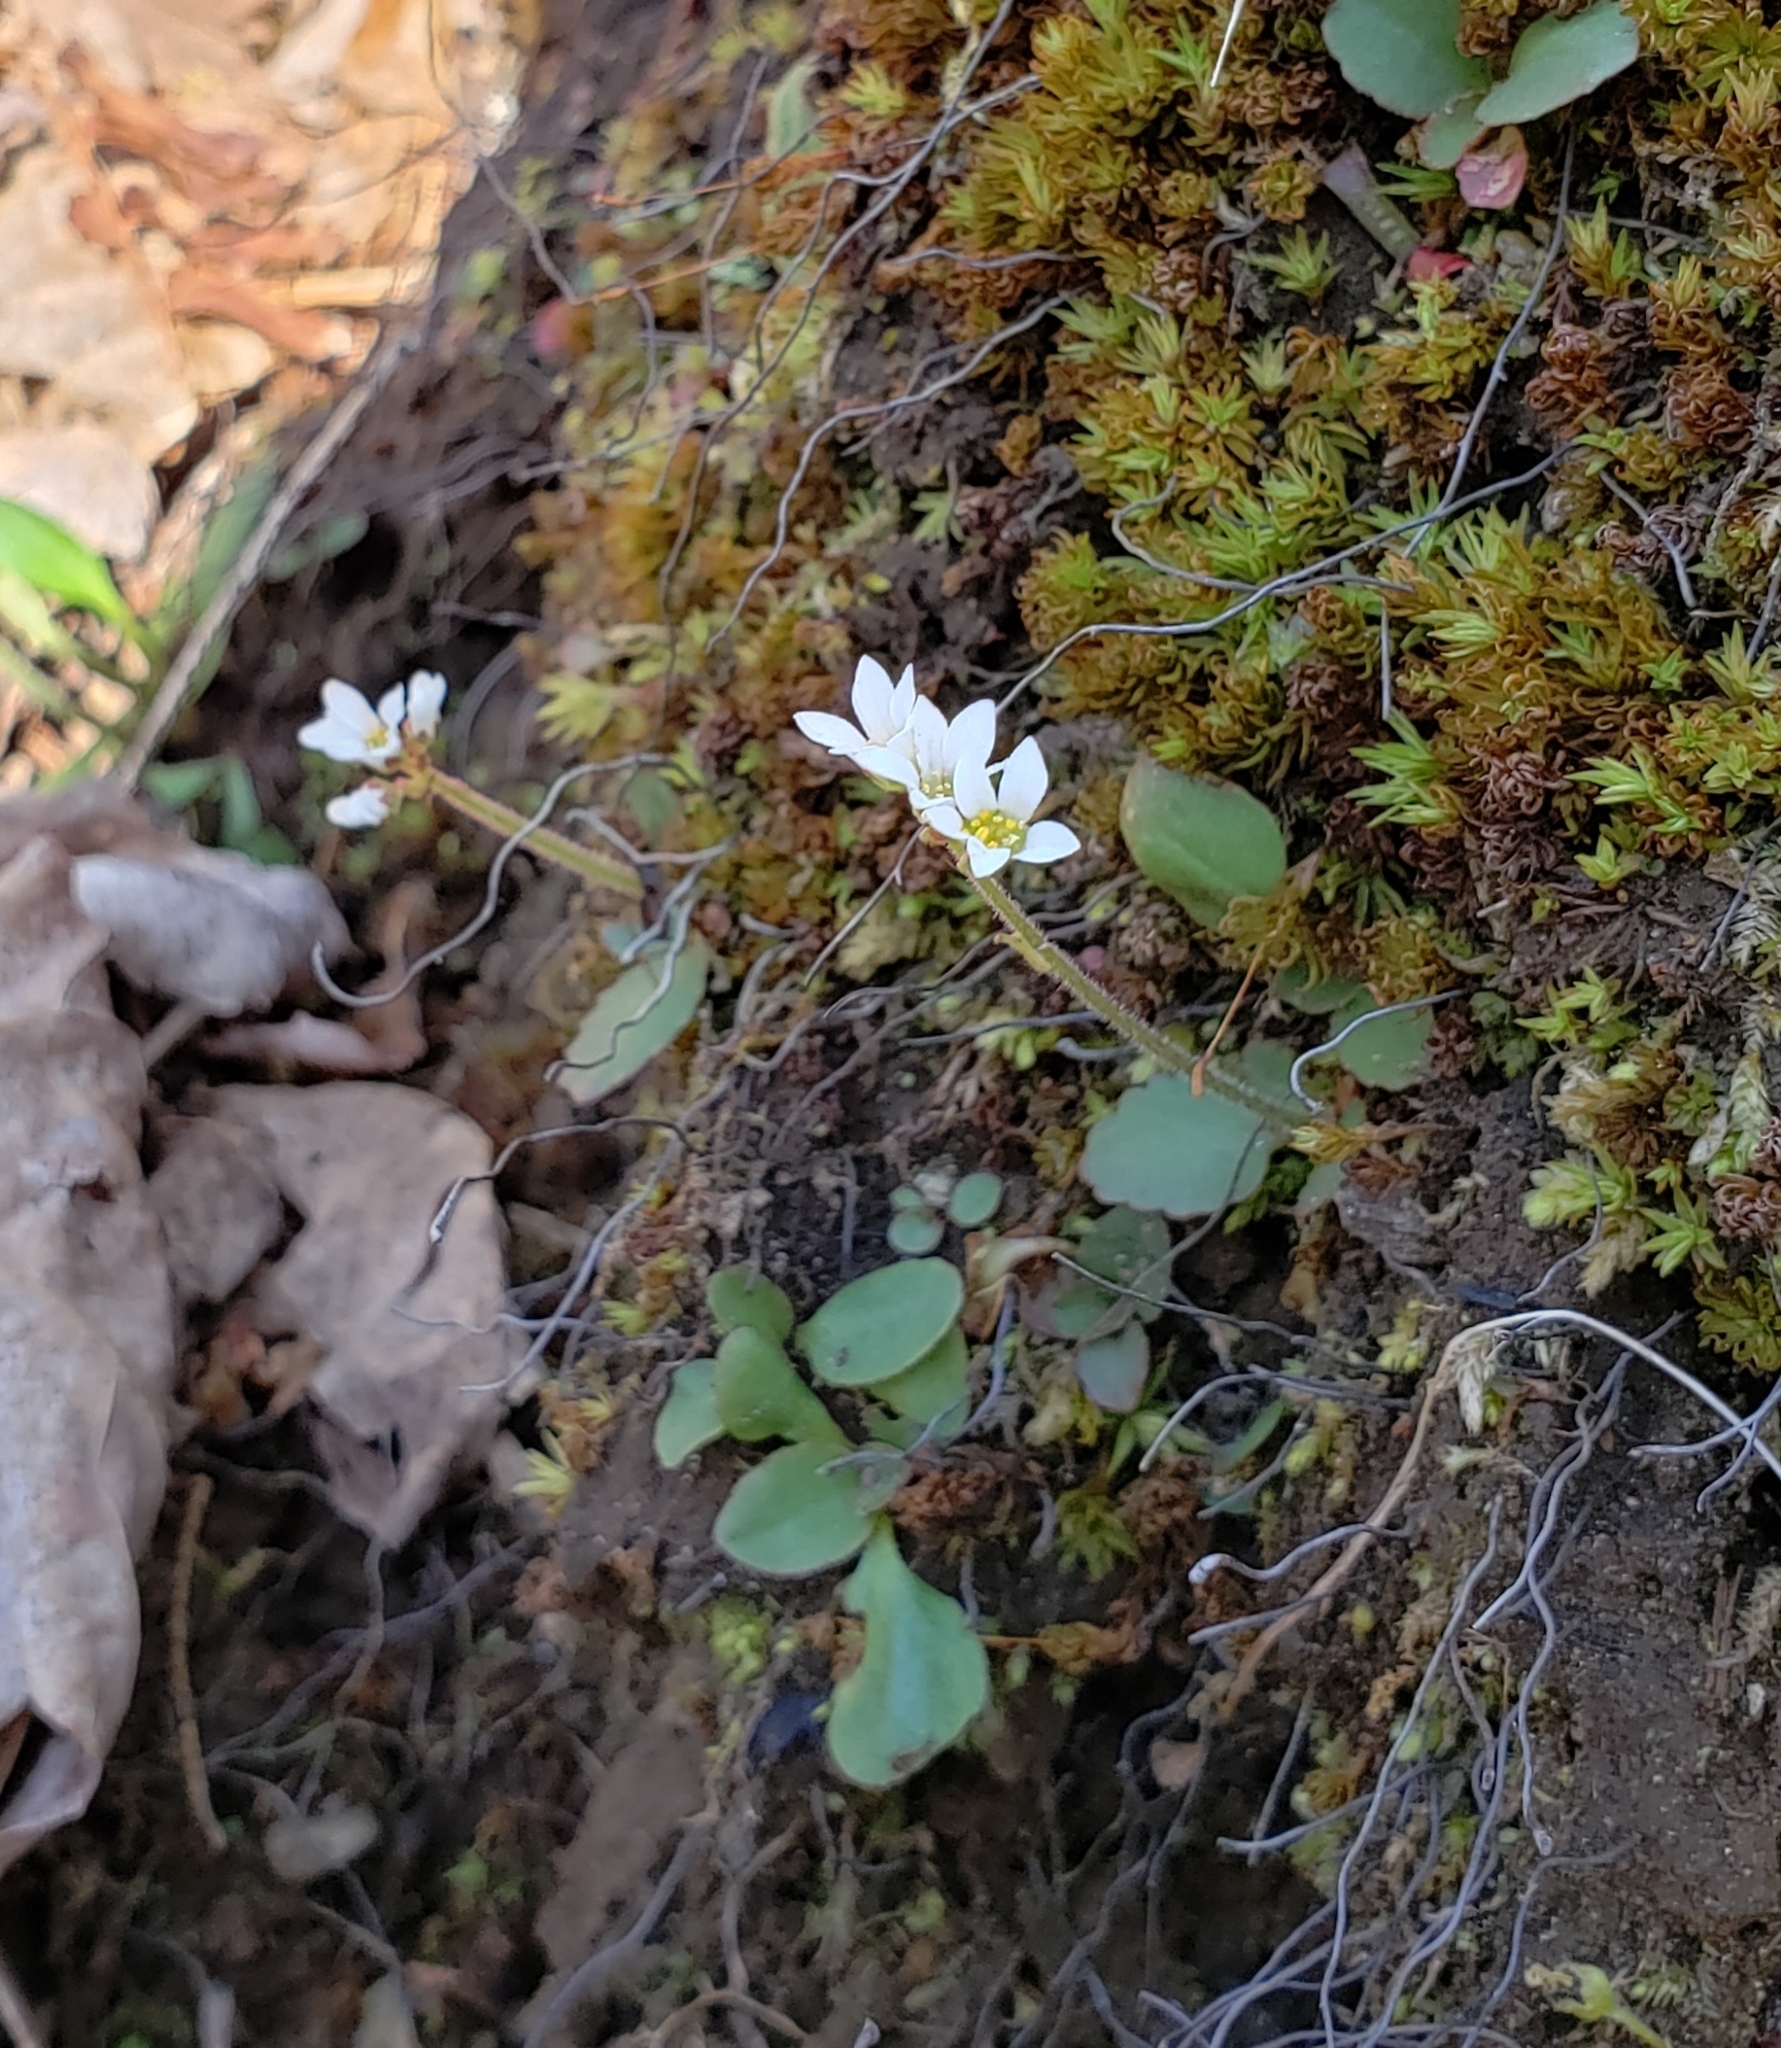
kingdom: Plantae
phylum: Tracheophyta
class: Magnoliopsida
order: Saxifragales
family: Saxifragaceae
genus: Micranthes
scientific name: Micranthes virginiensis
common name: Early saxifrage
